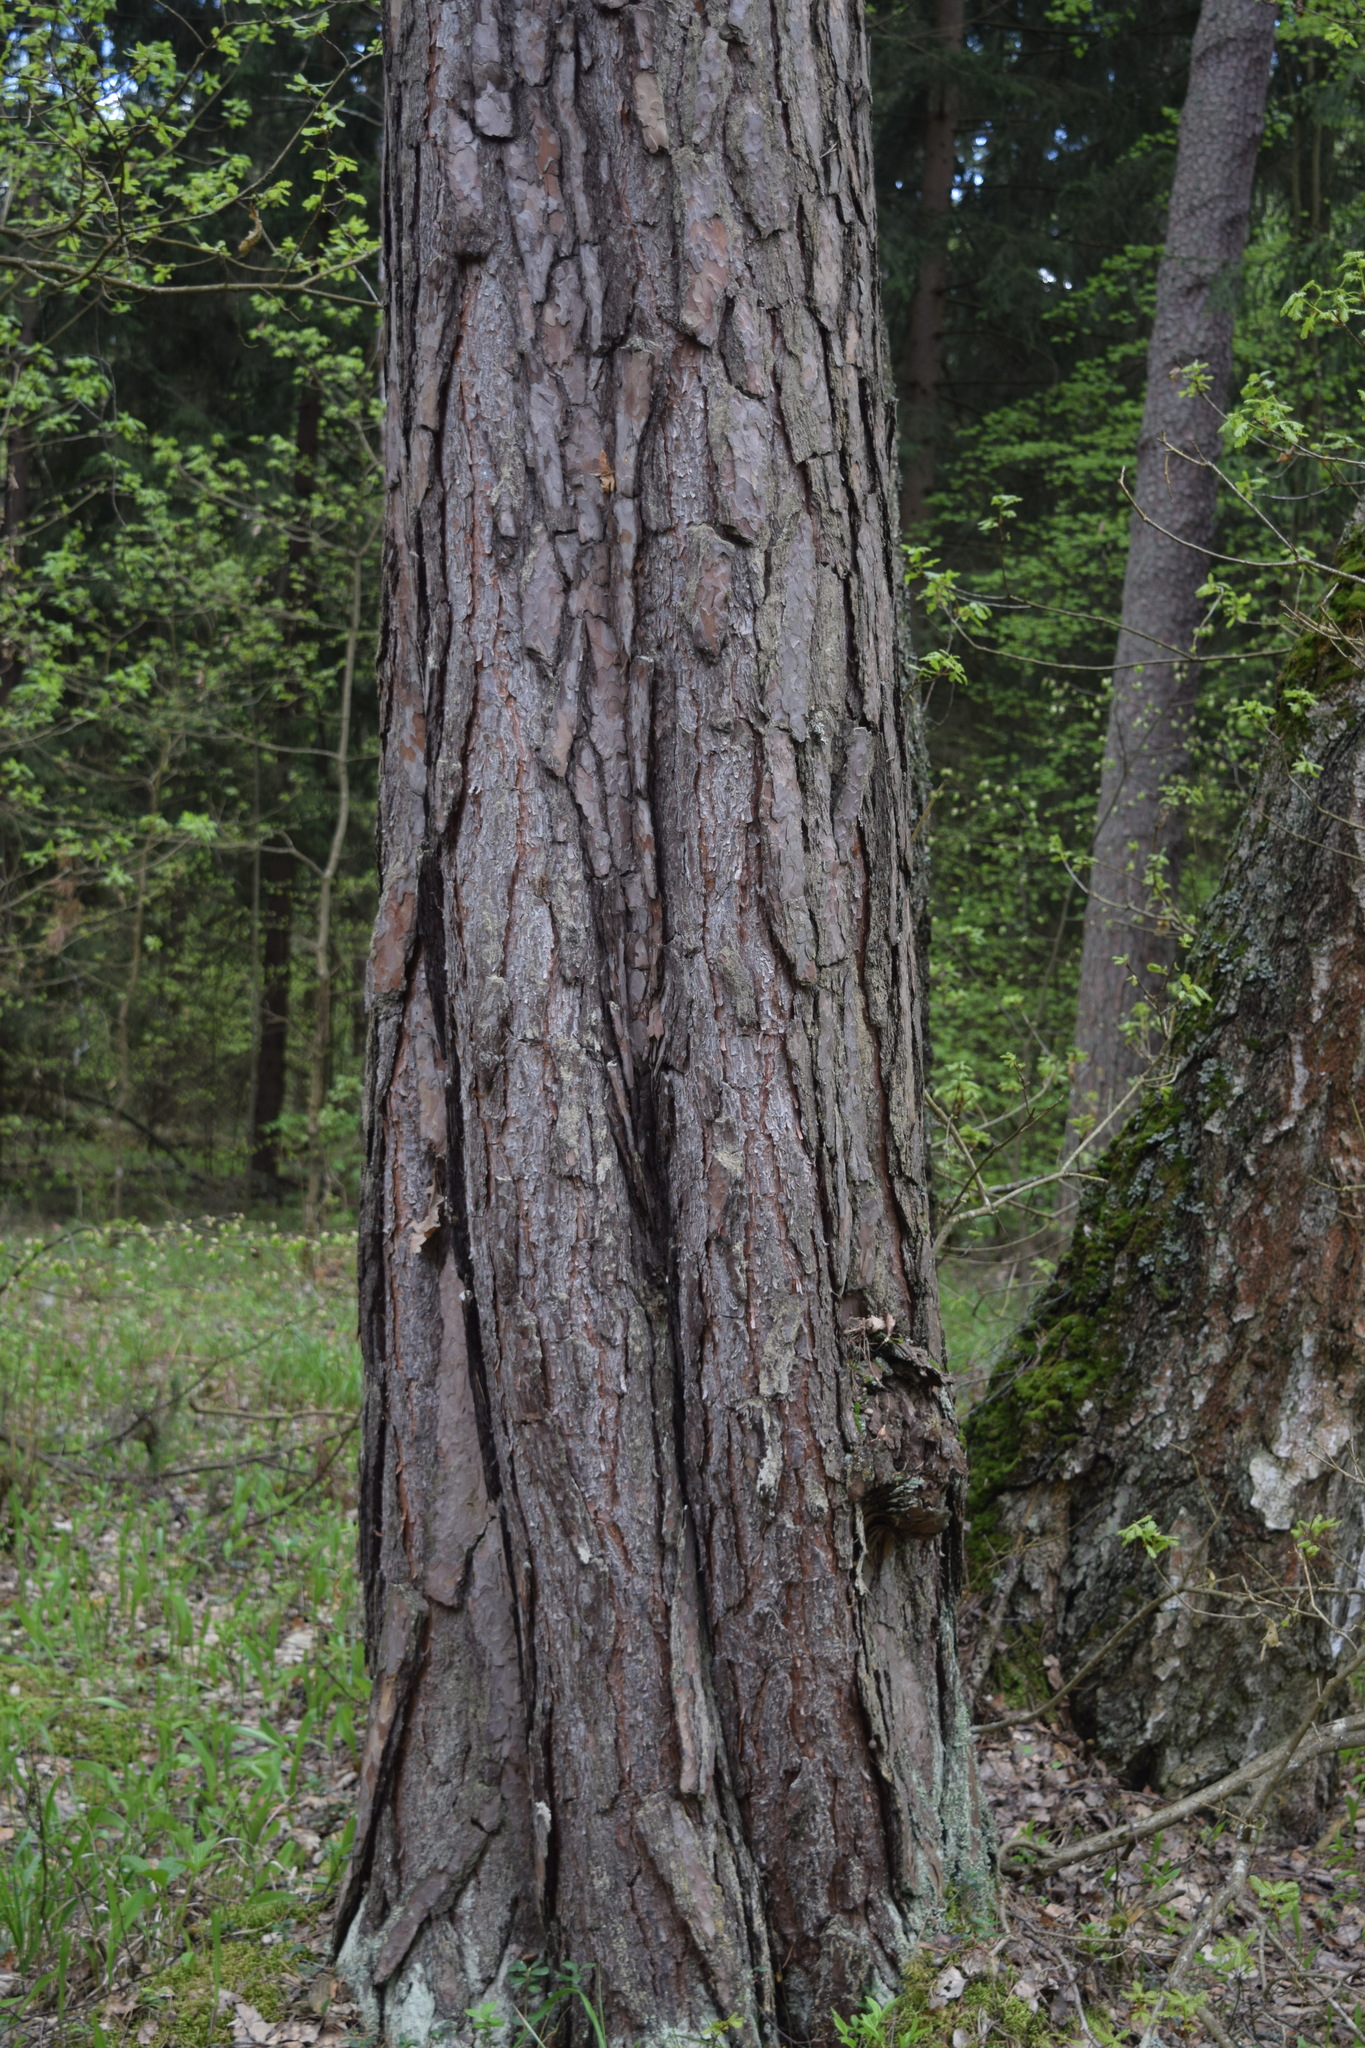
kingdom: Plantae
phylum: Tracheophyta
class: Pinopsida
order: Pinales
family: Pinaceae
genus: Pinus
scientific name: Pinus sylvestris
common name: Scots pine
